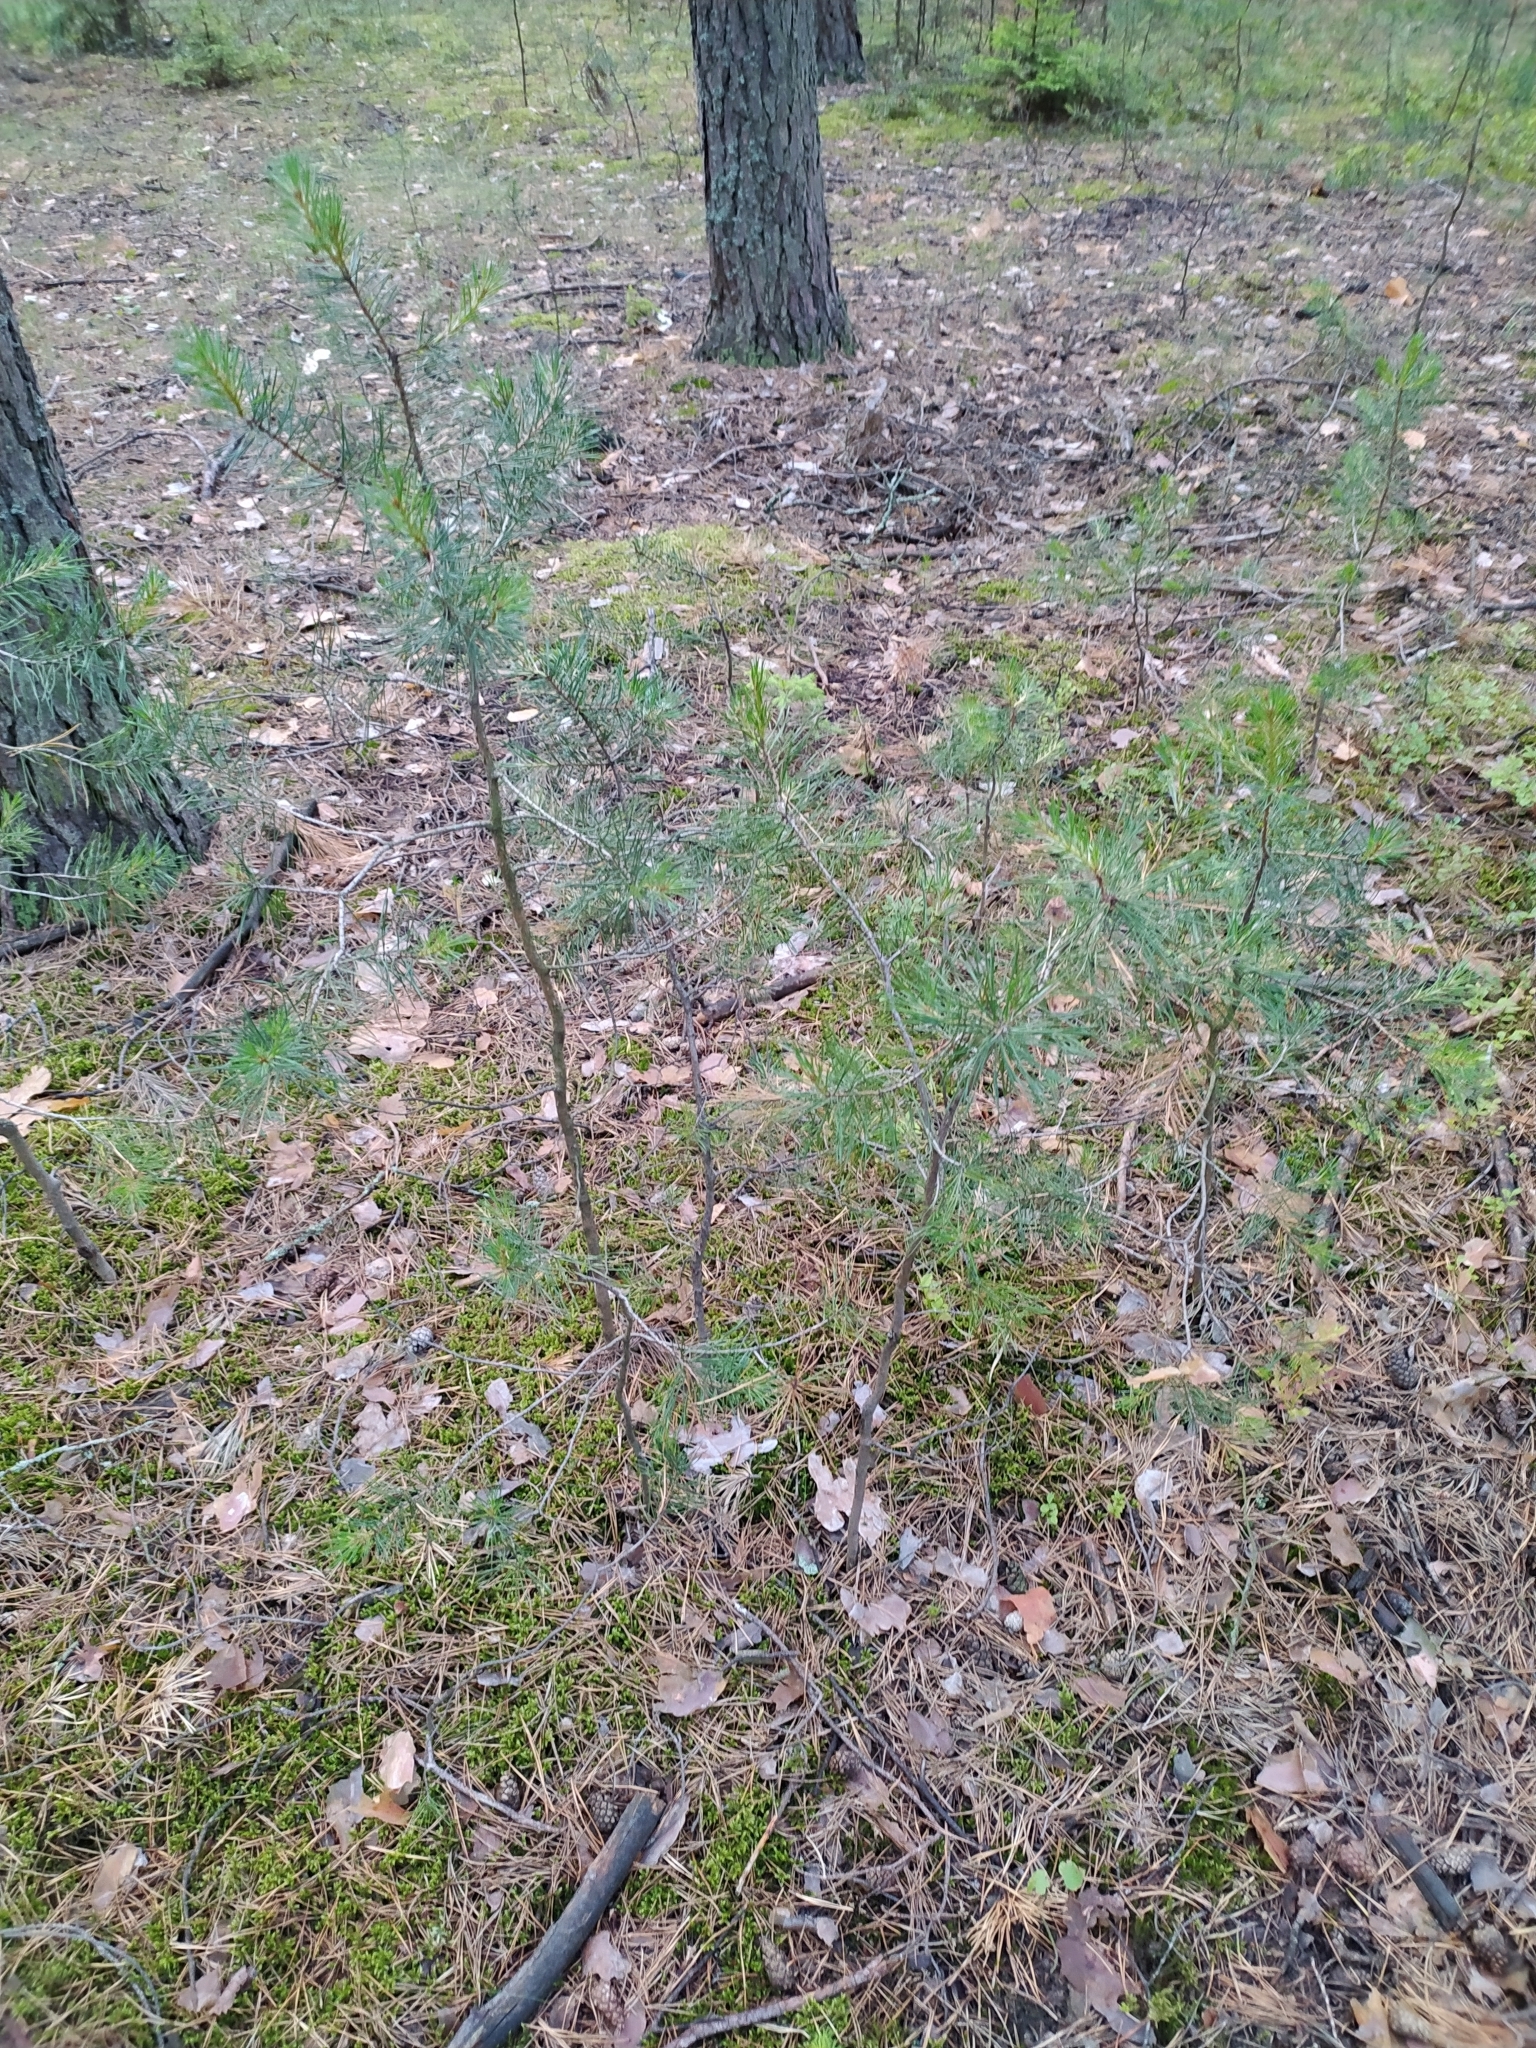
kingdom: Plantae
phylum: Tracheophyta
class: Pinopsida
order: Pinales
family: Pinaceae
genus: Pinus
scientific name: Pinus sylvestris
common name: Scots pine
